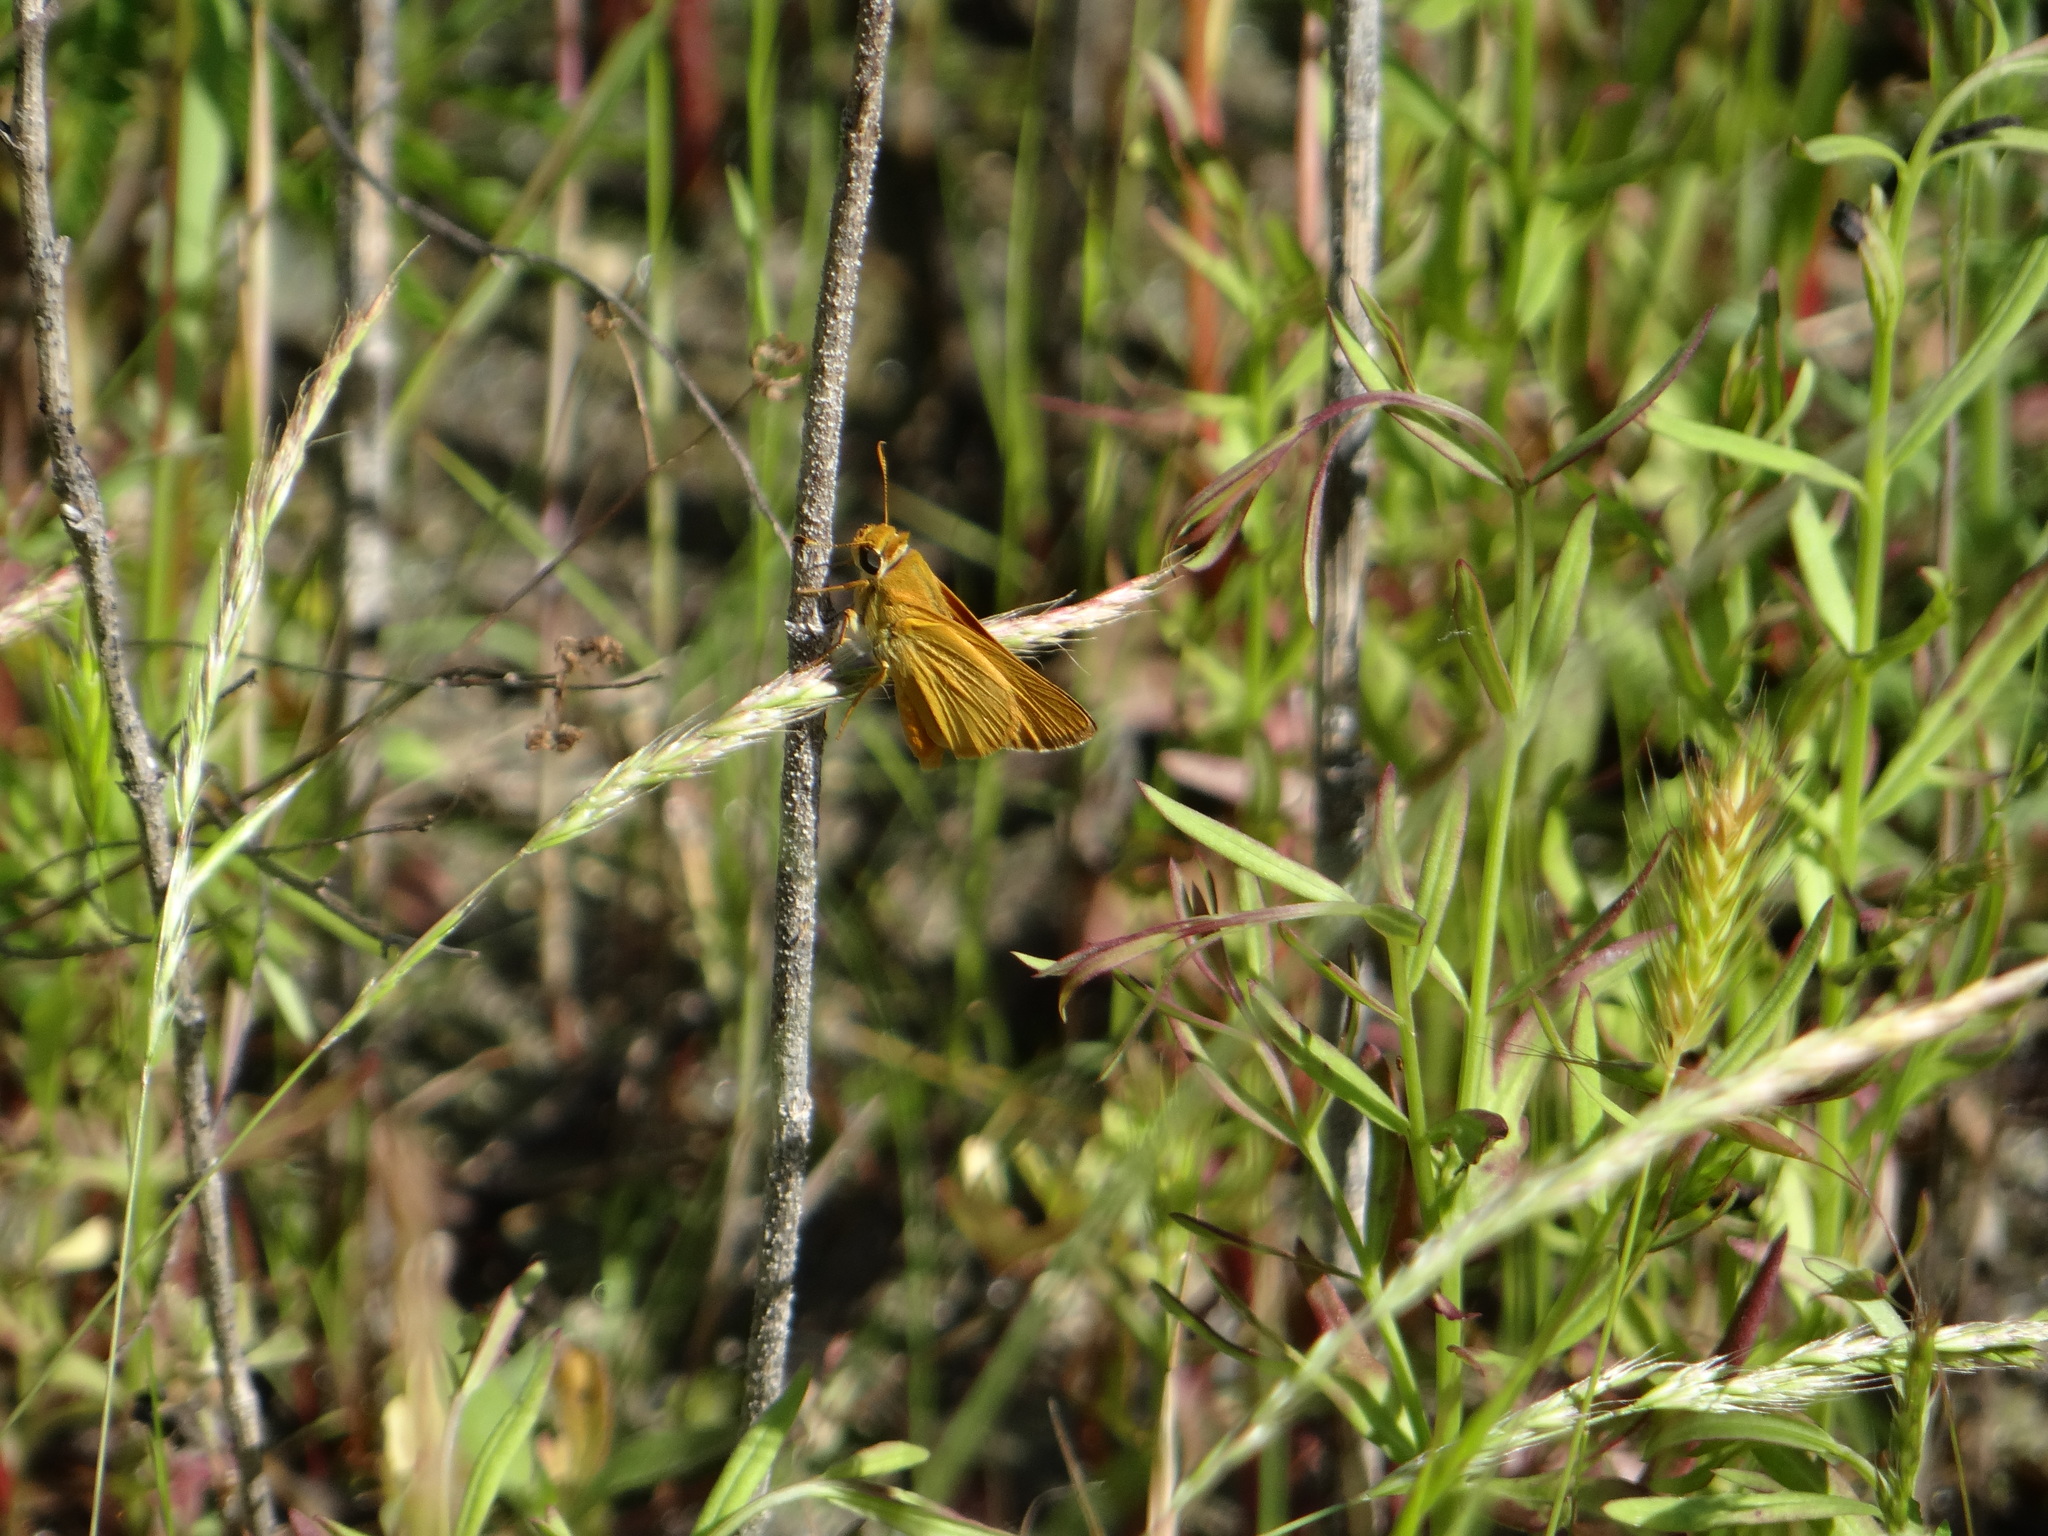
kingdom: Animalia
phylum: Arthropoda
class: Insecta
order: Lepidoptera
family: Hesperiidae
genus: Atrytone
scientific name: Atrytone delaware
